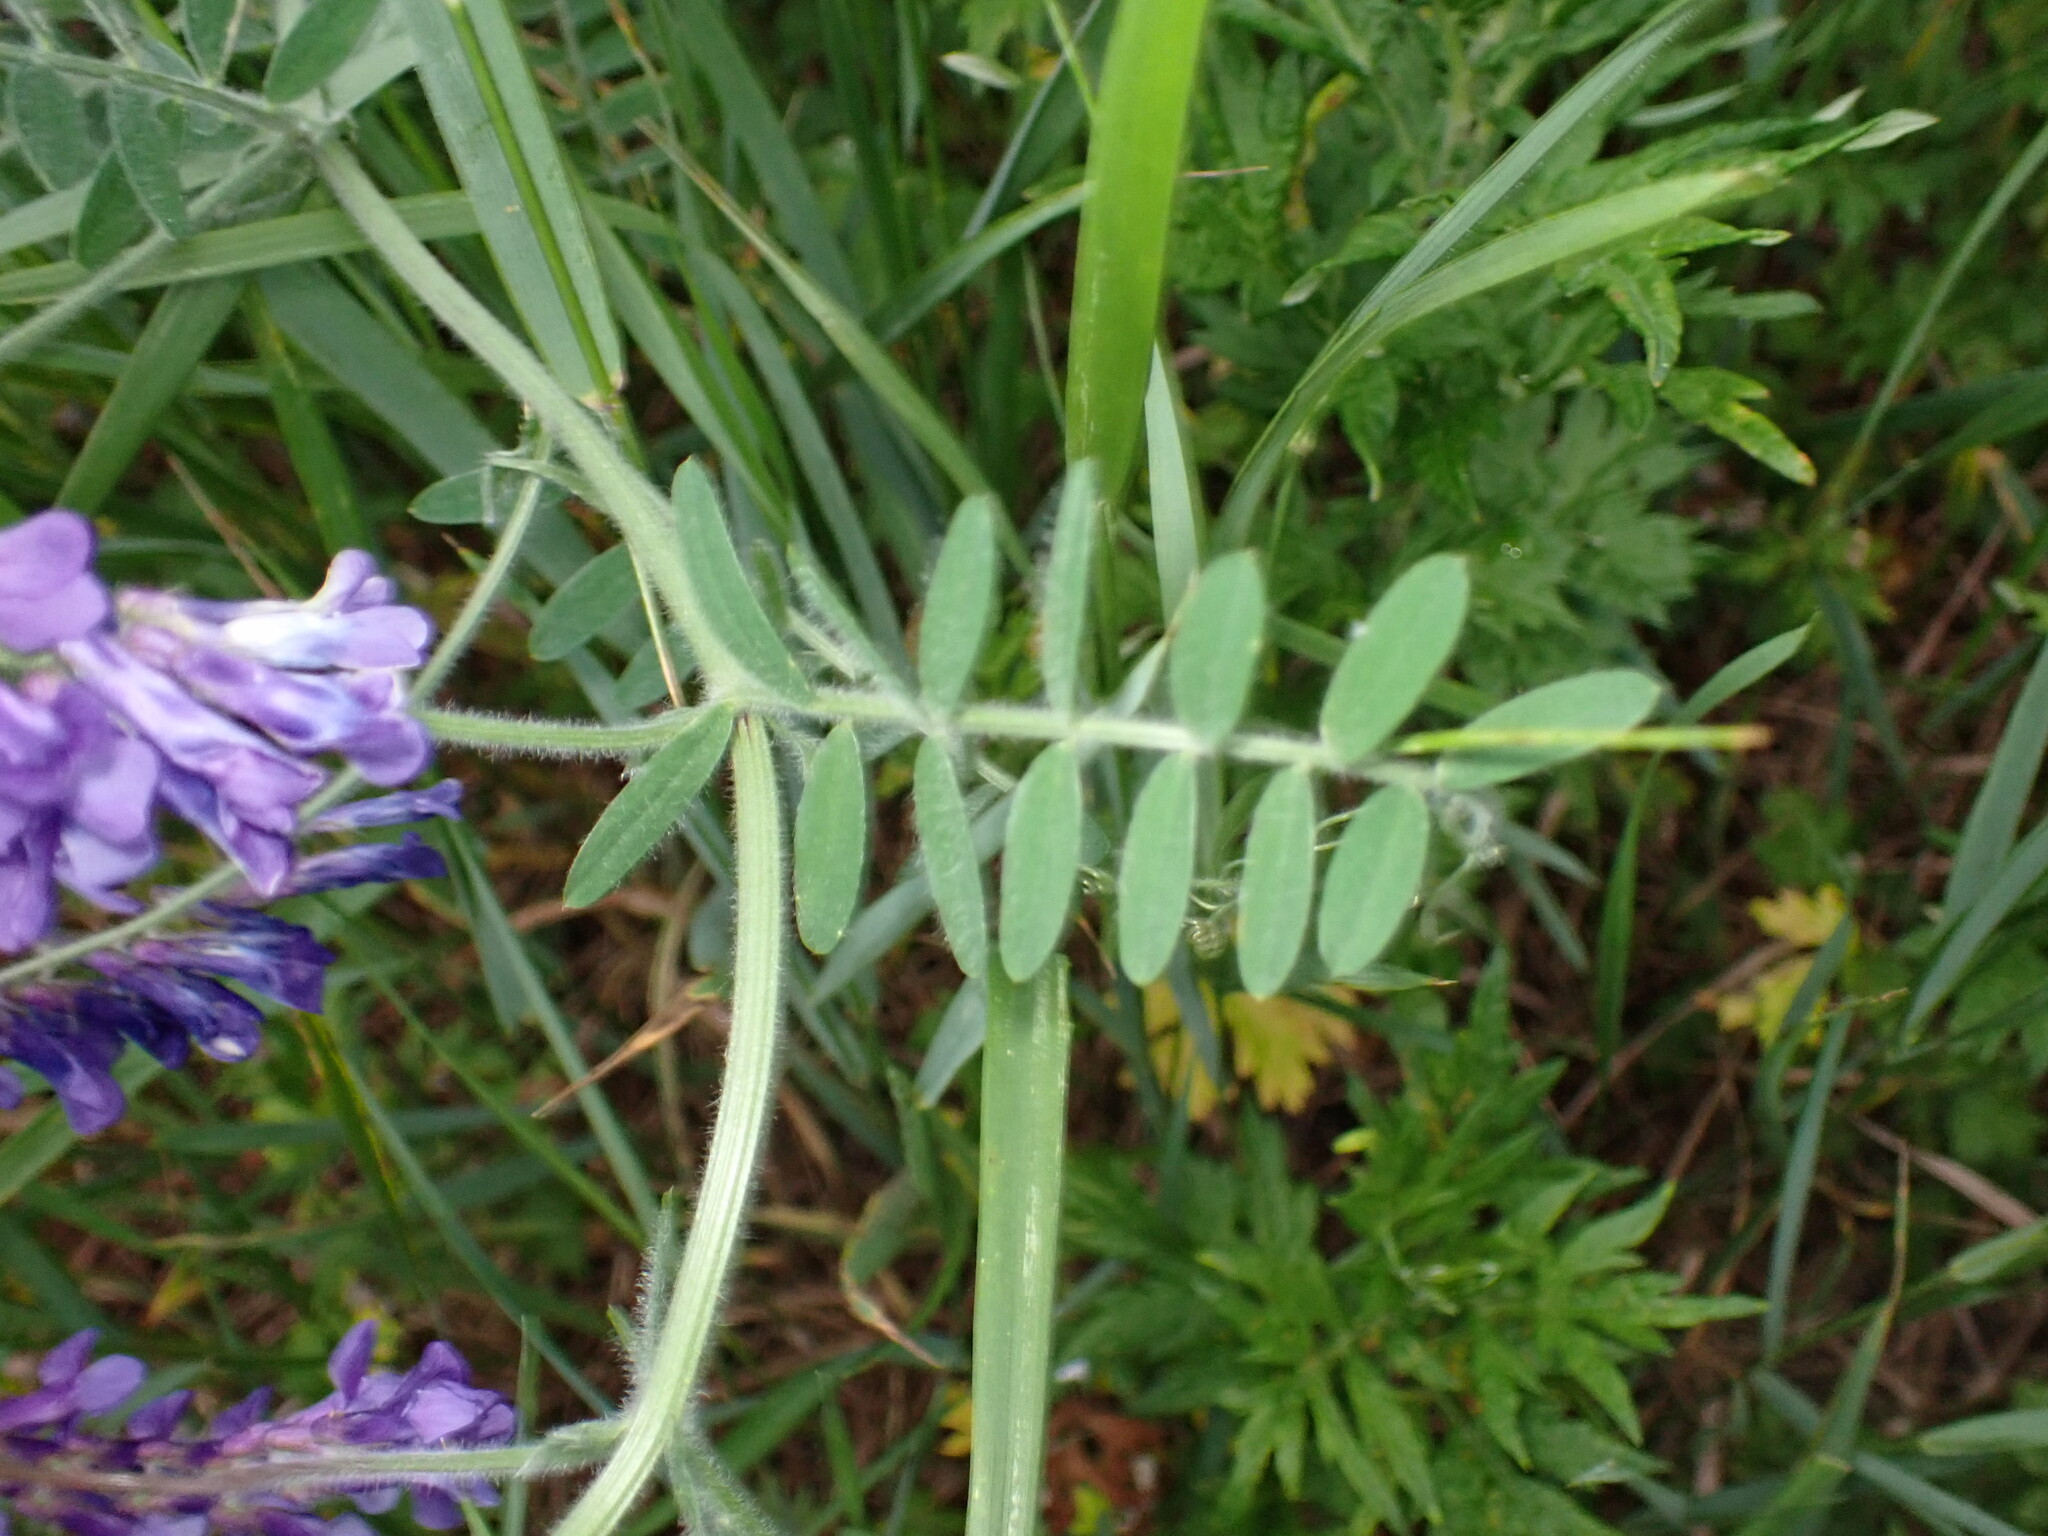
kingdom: Plantae
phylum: Tracheophyta
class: Magnoliopsida
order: Fabales
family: Fabaceae
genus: Vicia
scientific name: Vicia villosa
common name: Fodder vetch
